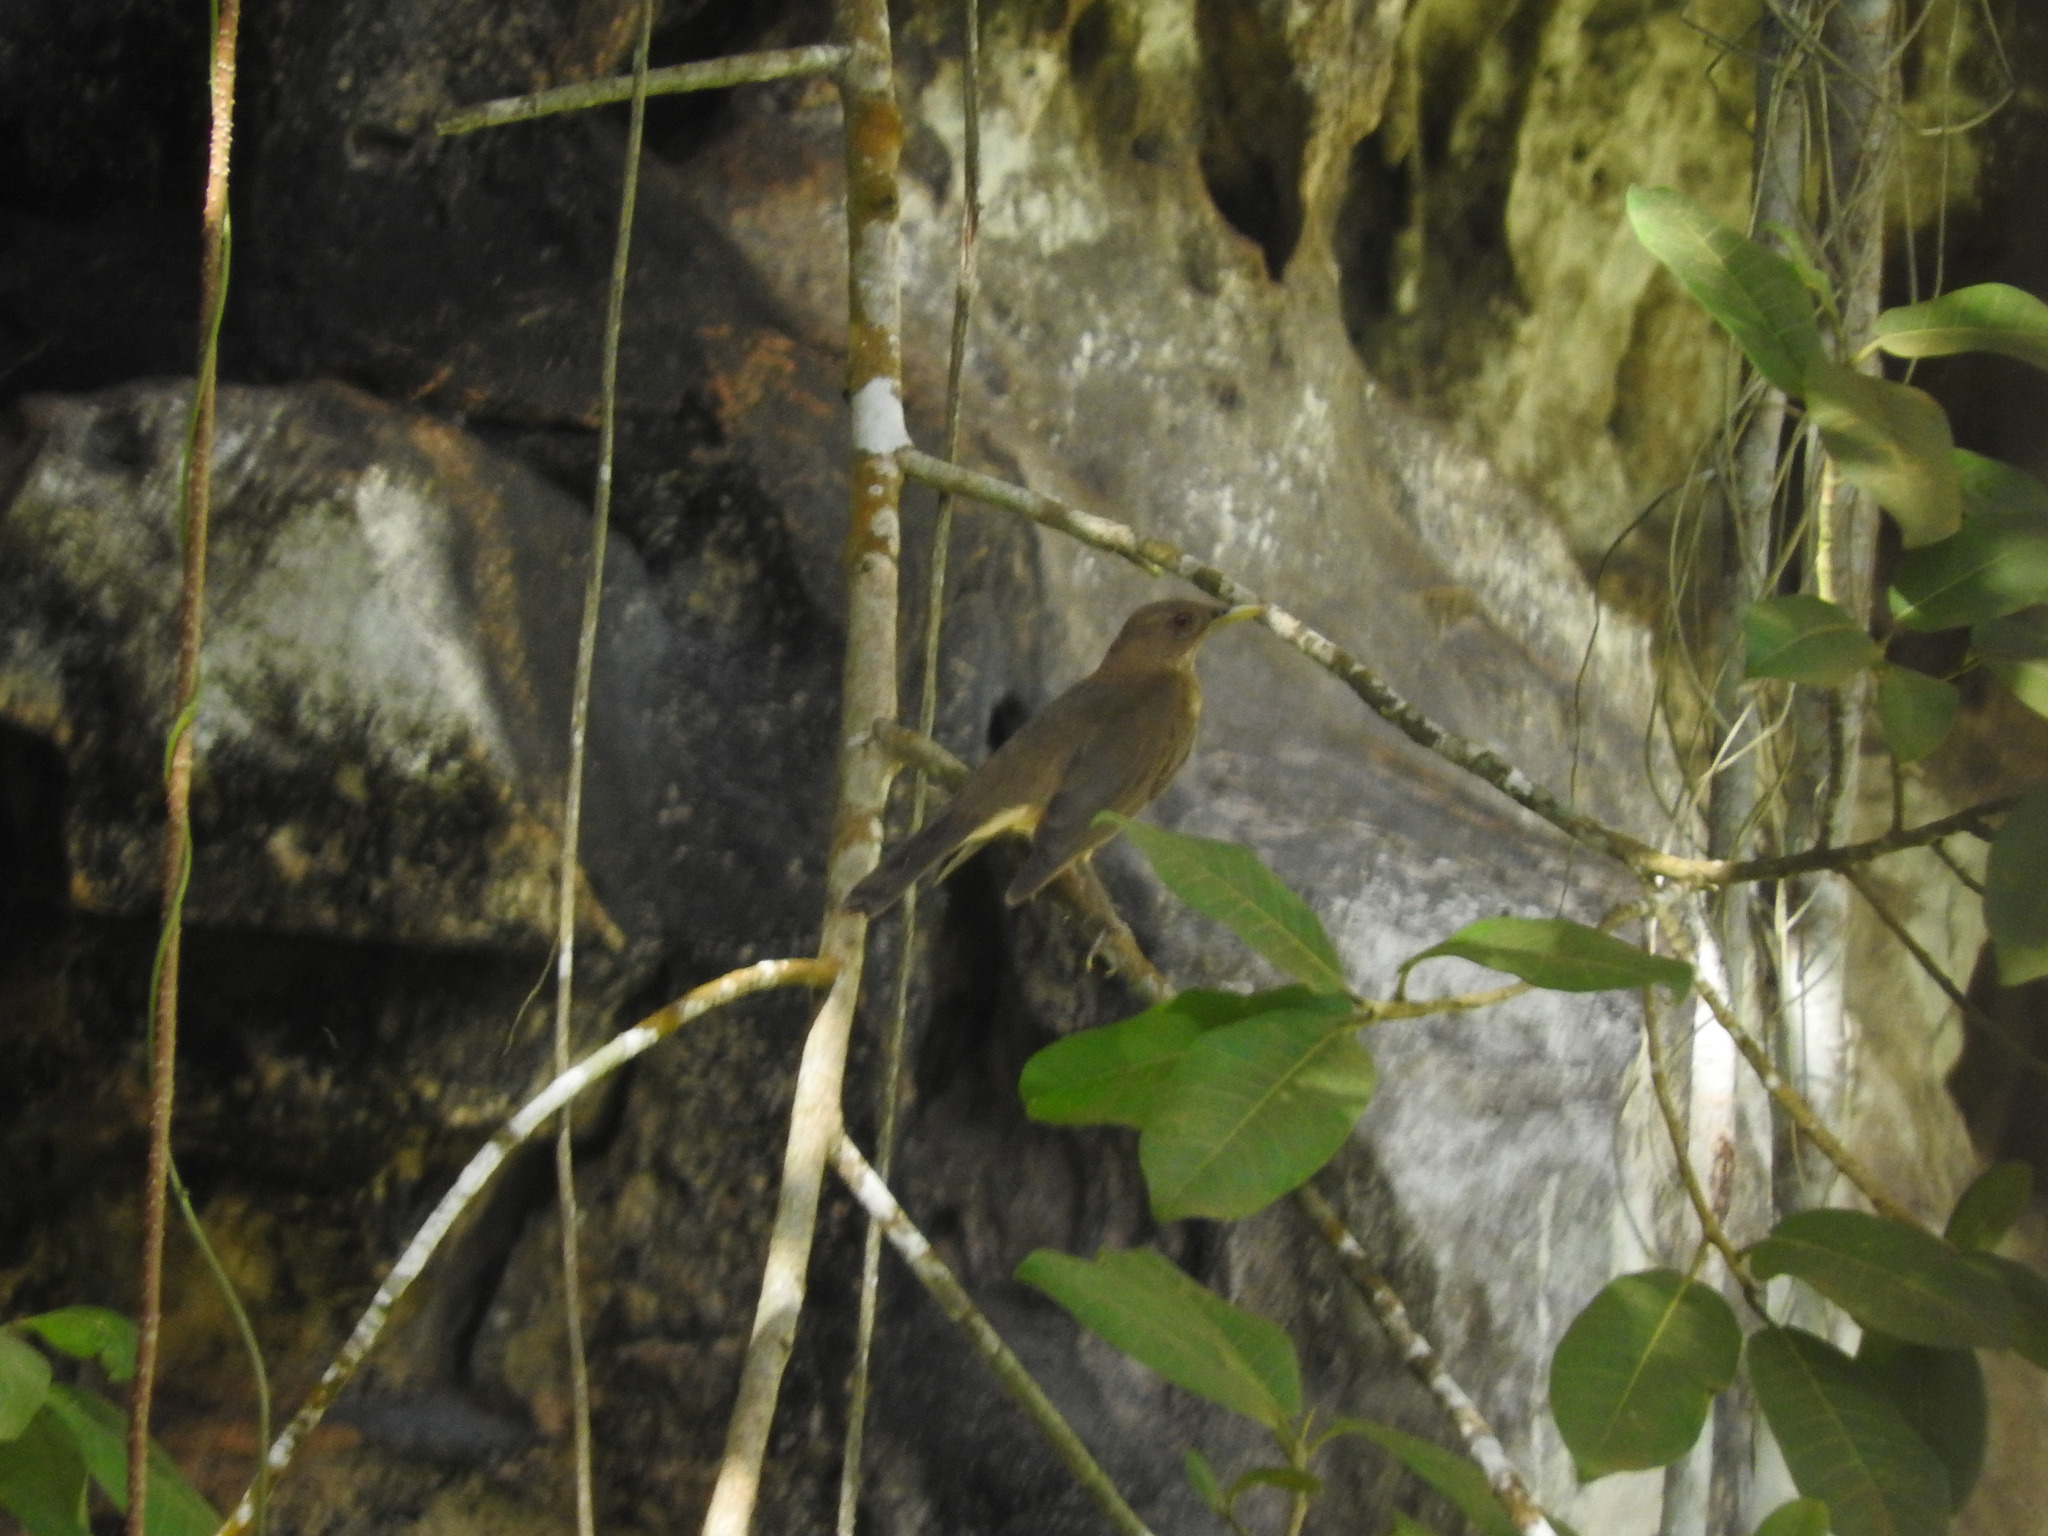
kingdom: Animalia
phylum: Chordata
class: Aves
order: Passeriformes
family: Turdidae
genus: Turdus
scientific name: Turdus grayi
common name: Clay-colored thrush
